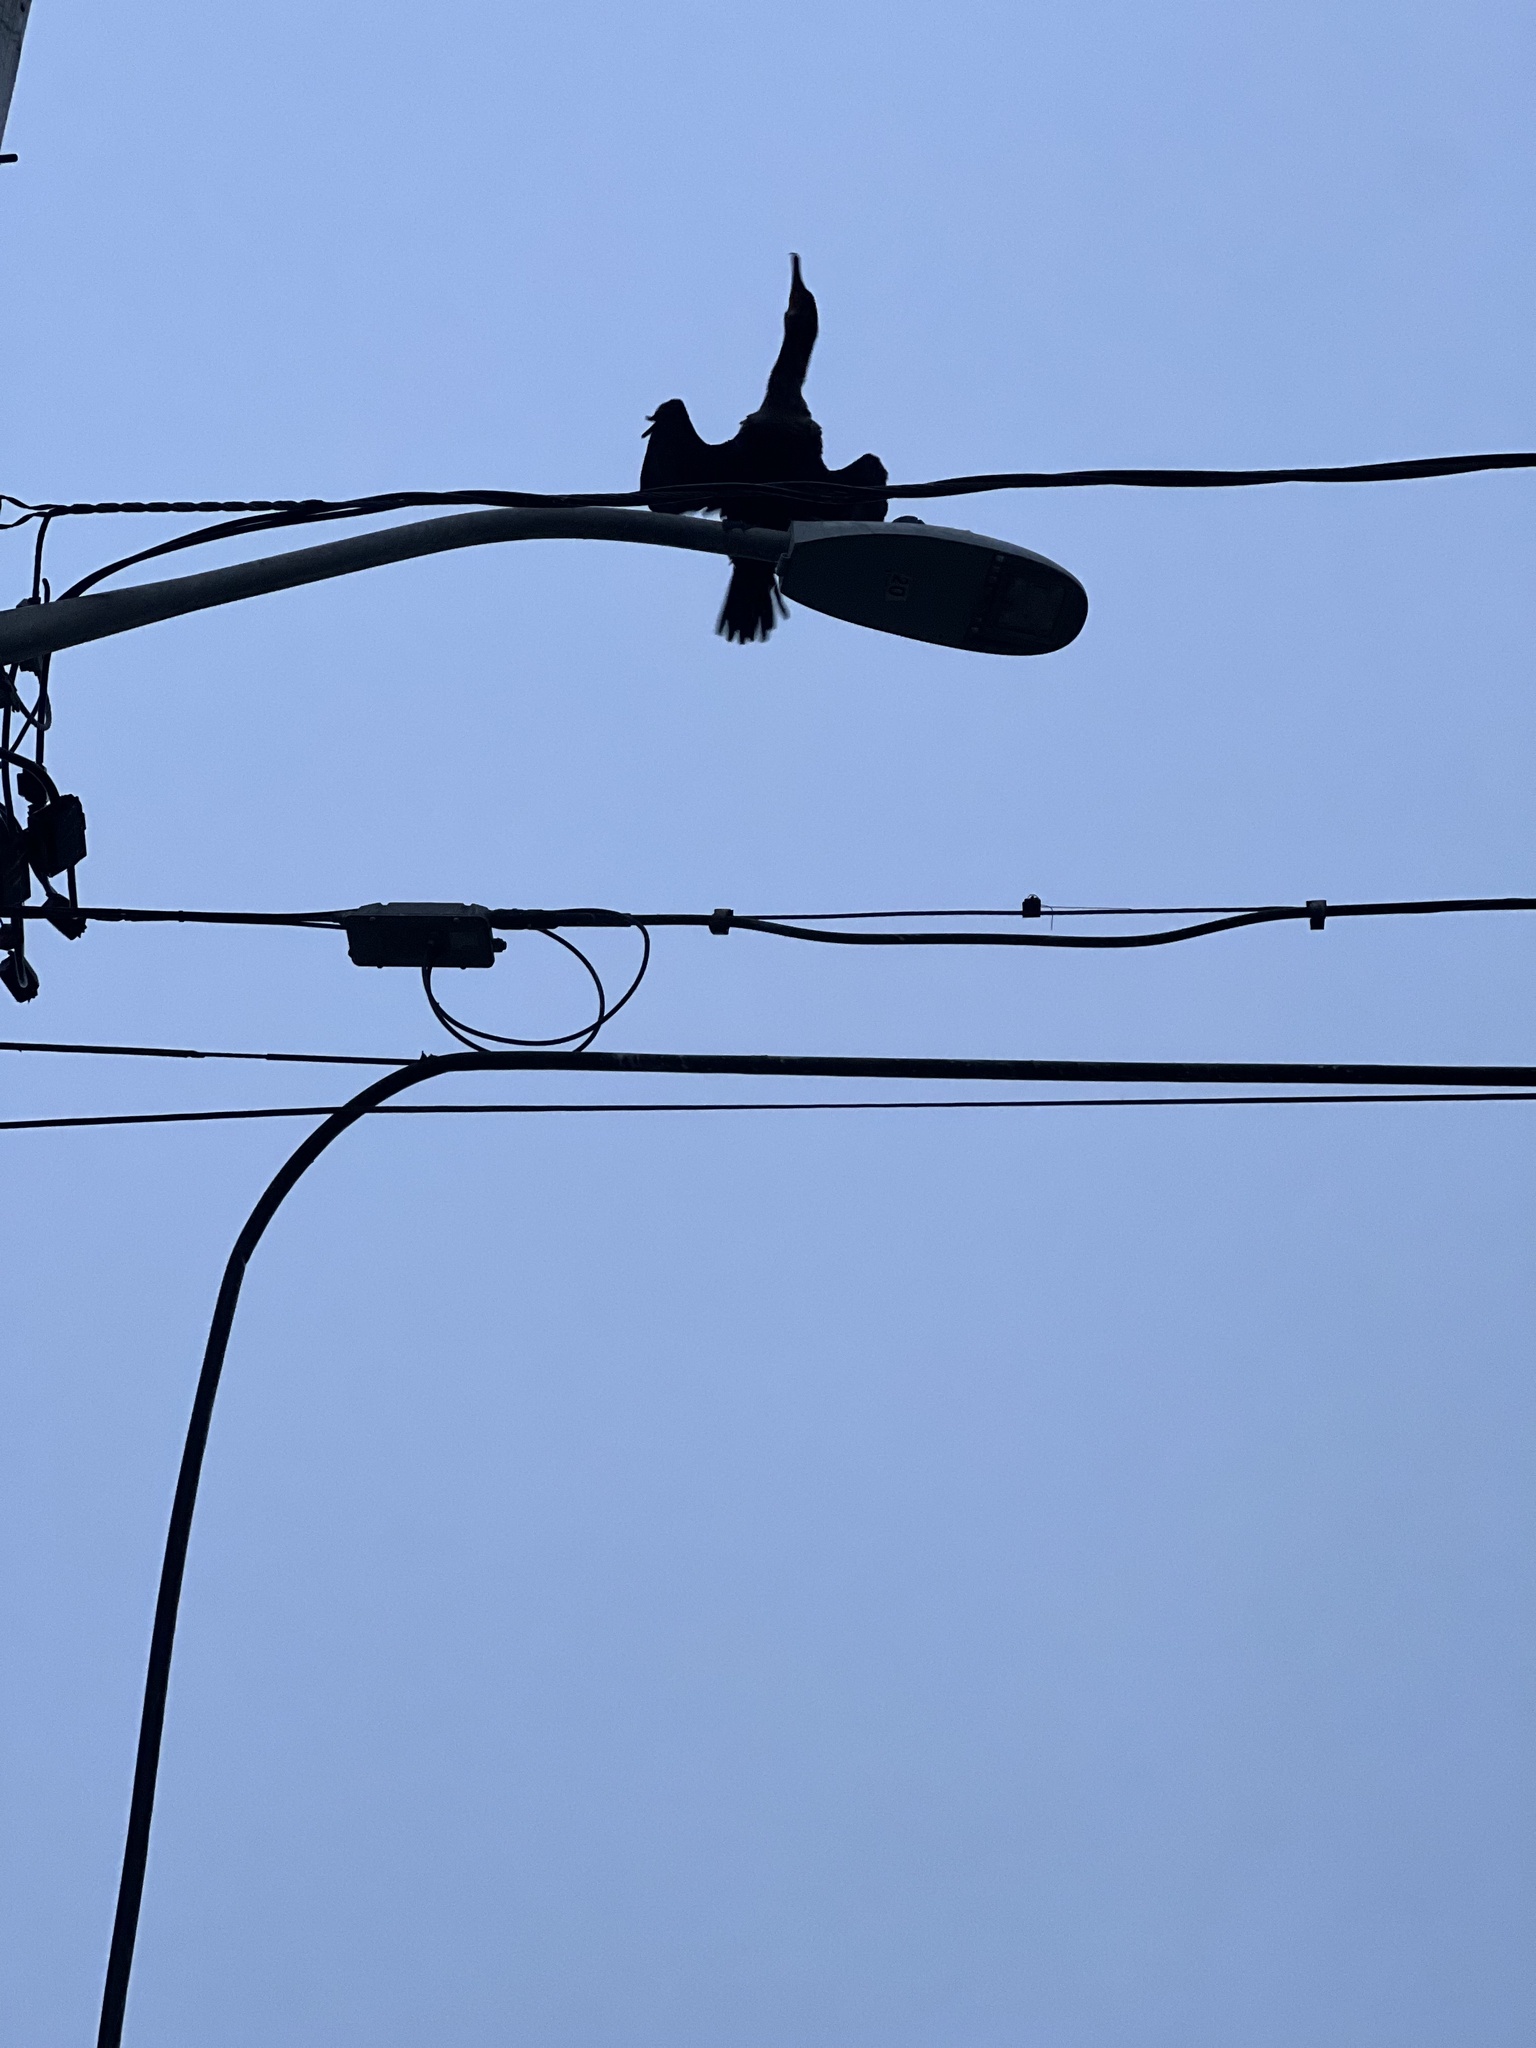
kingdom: Animalia
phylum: Chordata
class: Aves
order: Suliformes
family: Phalacrocoracidae
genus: Phalacrocorax
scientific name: Phalacrocorax auritus
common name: Double-crested cormorant
